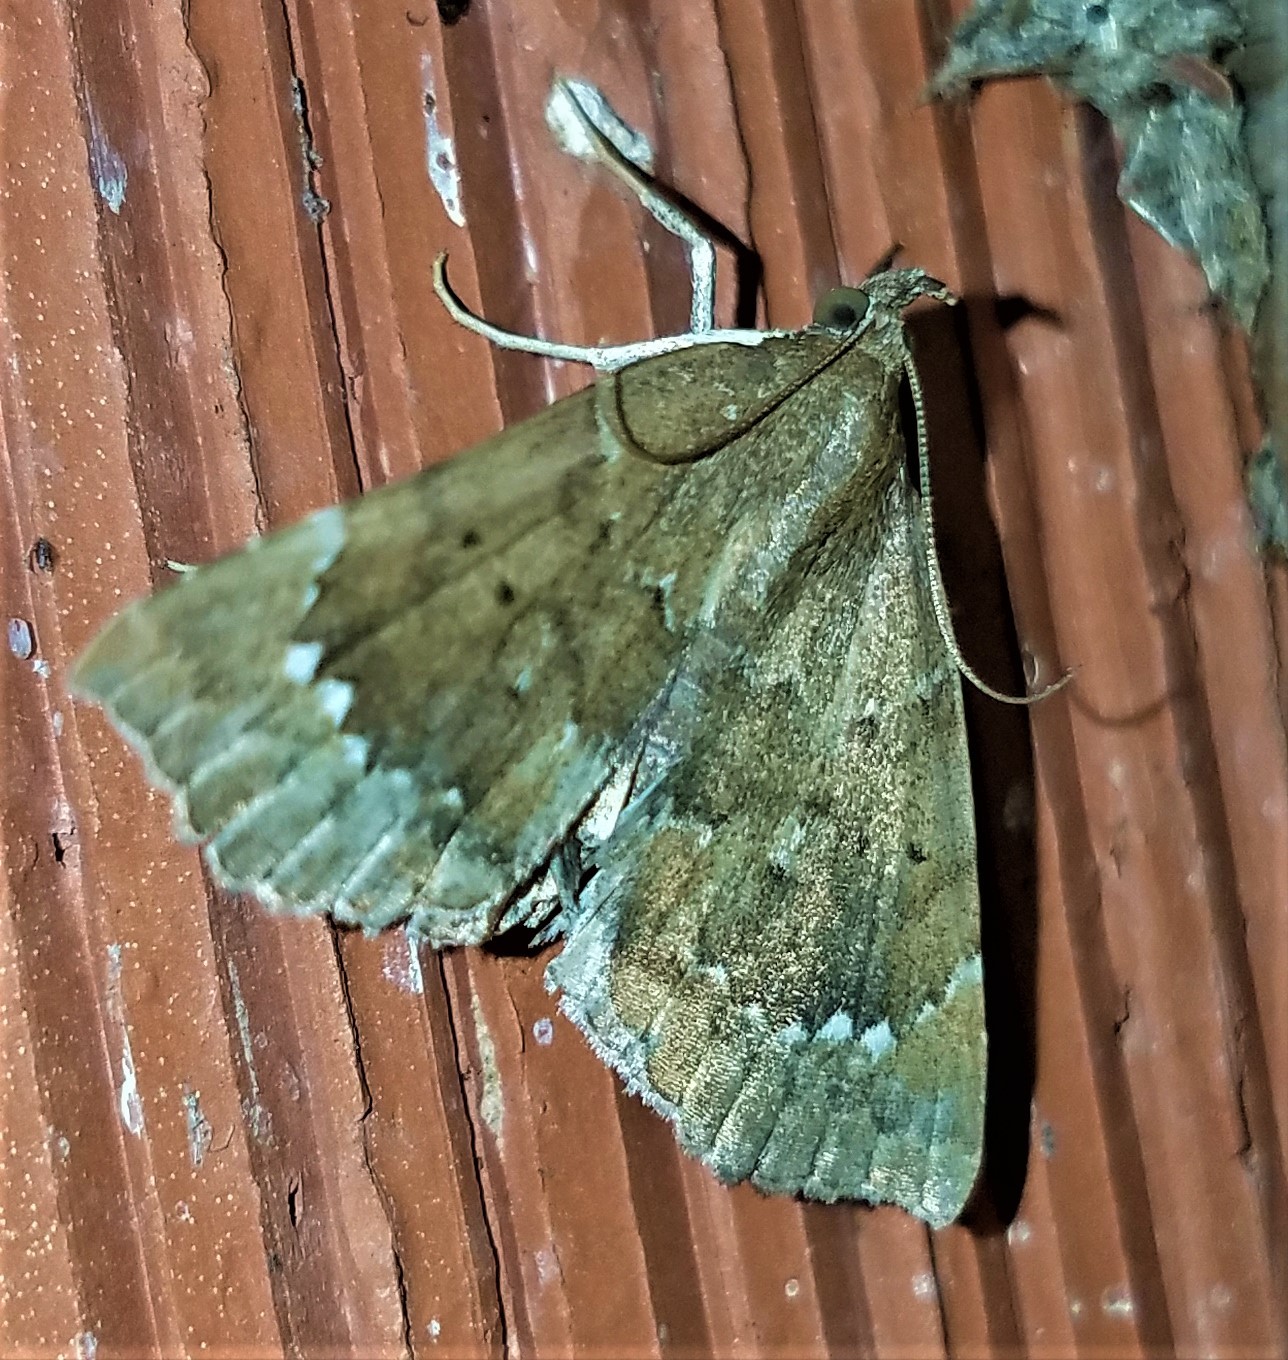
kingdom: Animalia
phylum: Arthropoda
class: Insecta
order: Lepidoptera
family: Erebidae
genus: Focillidia
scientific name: Focillidia texana
